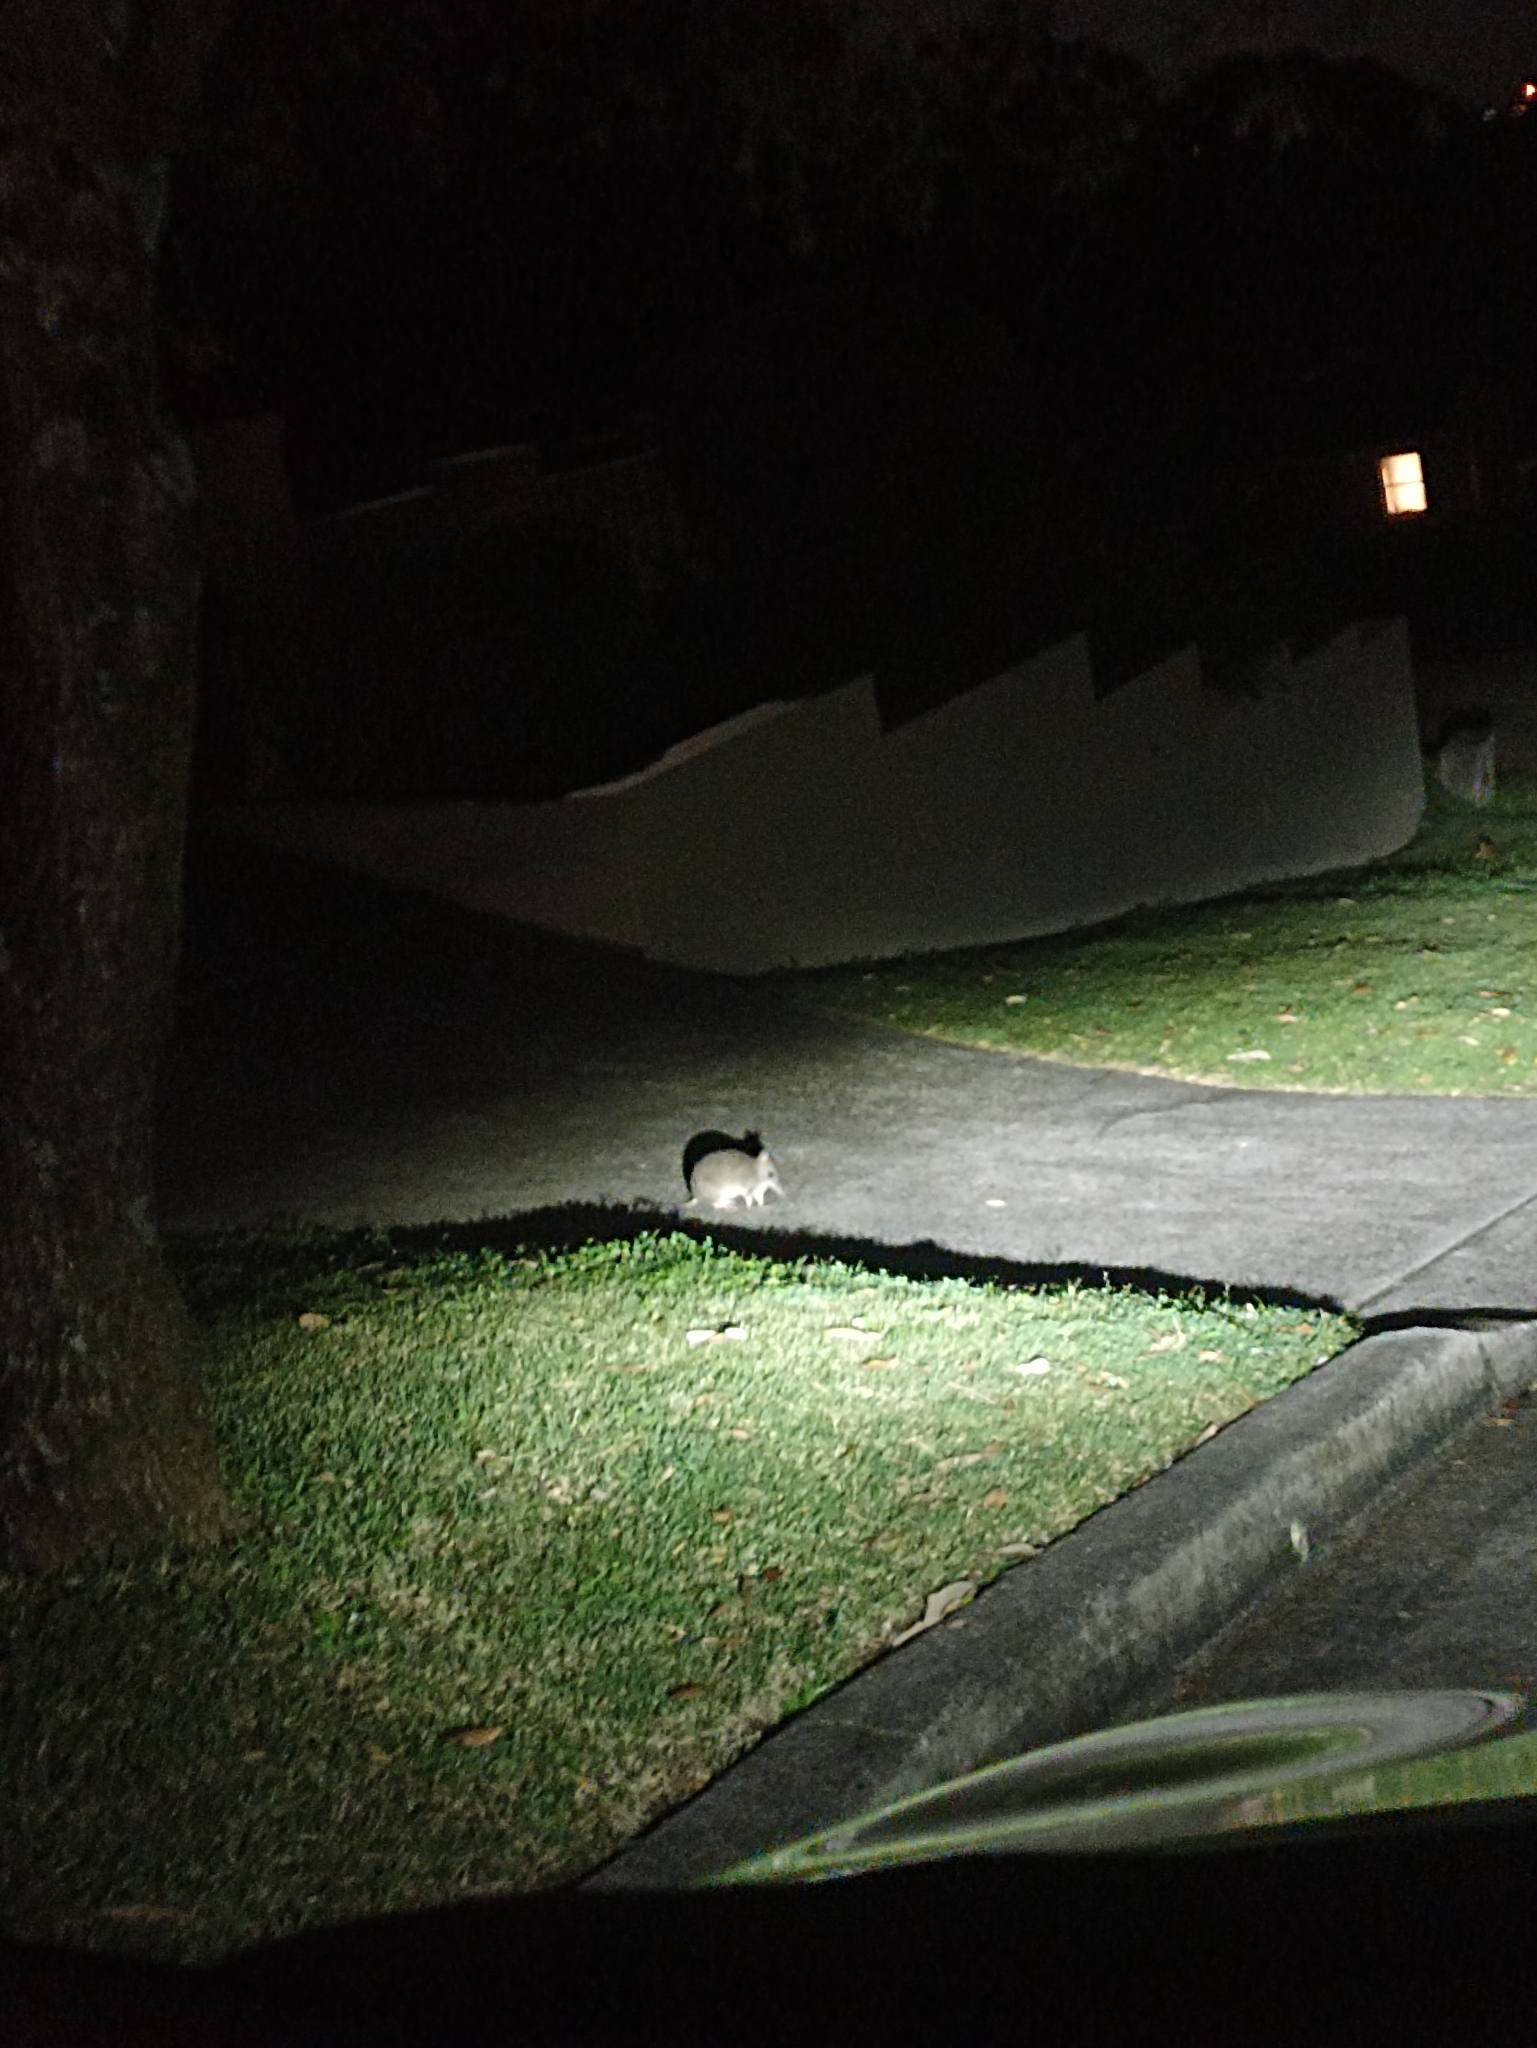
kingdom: Animalia
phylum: Chordata
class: Mammalia
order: Peramelemorphia
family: Peramelidae
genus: Perameles
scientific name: Perameles nasuta
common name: Long-nosed bandicoot
